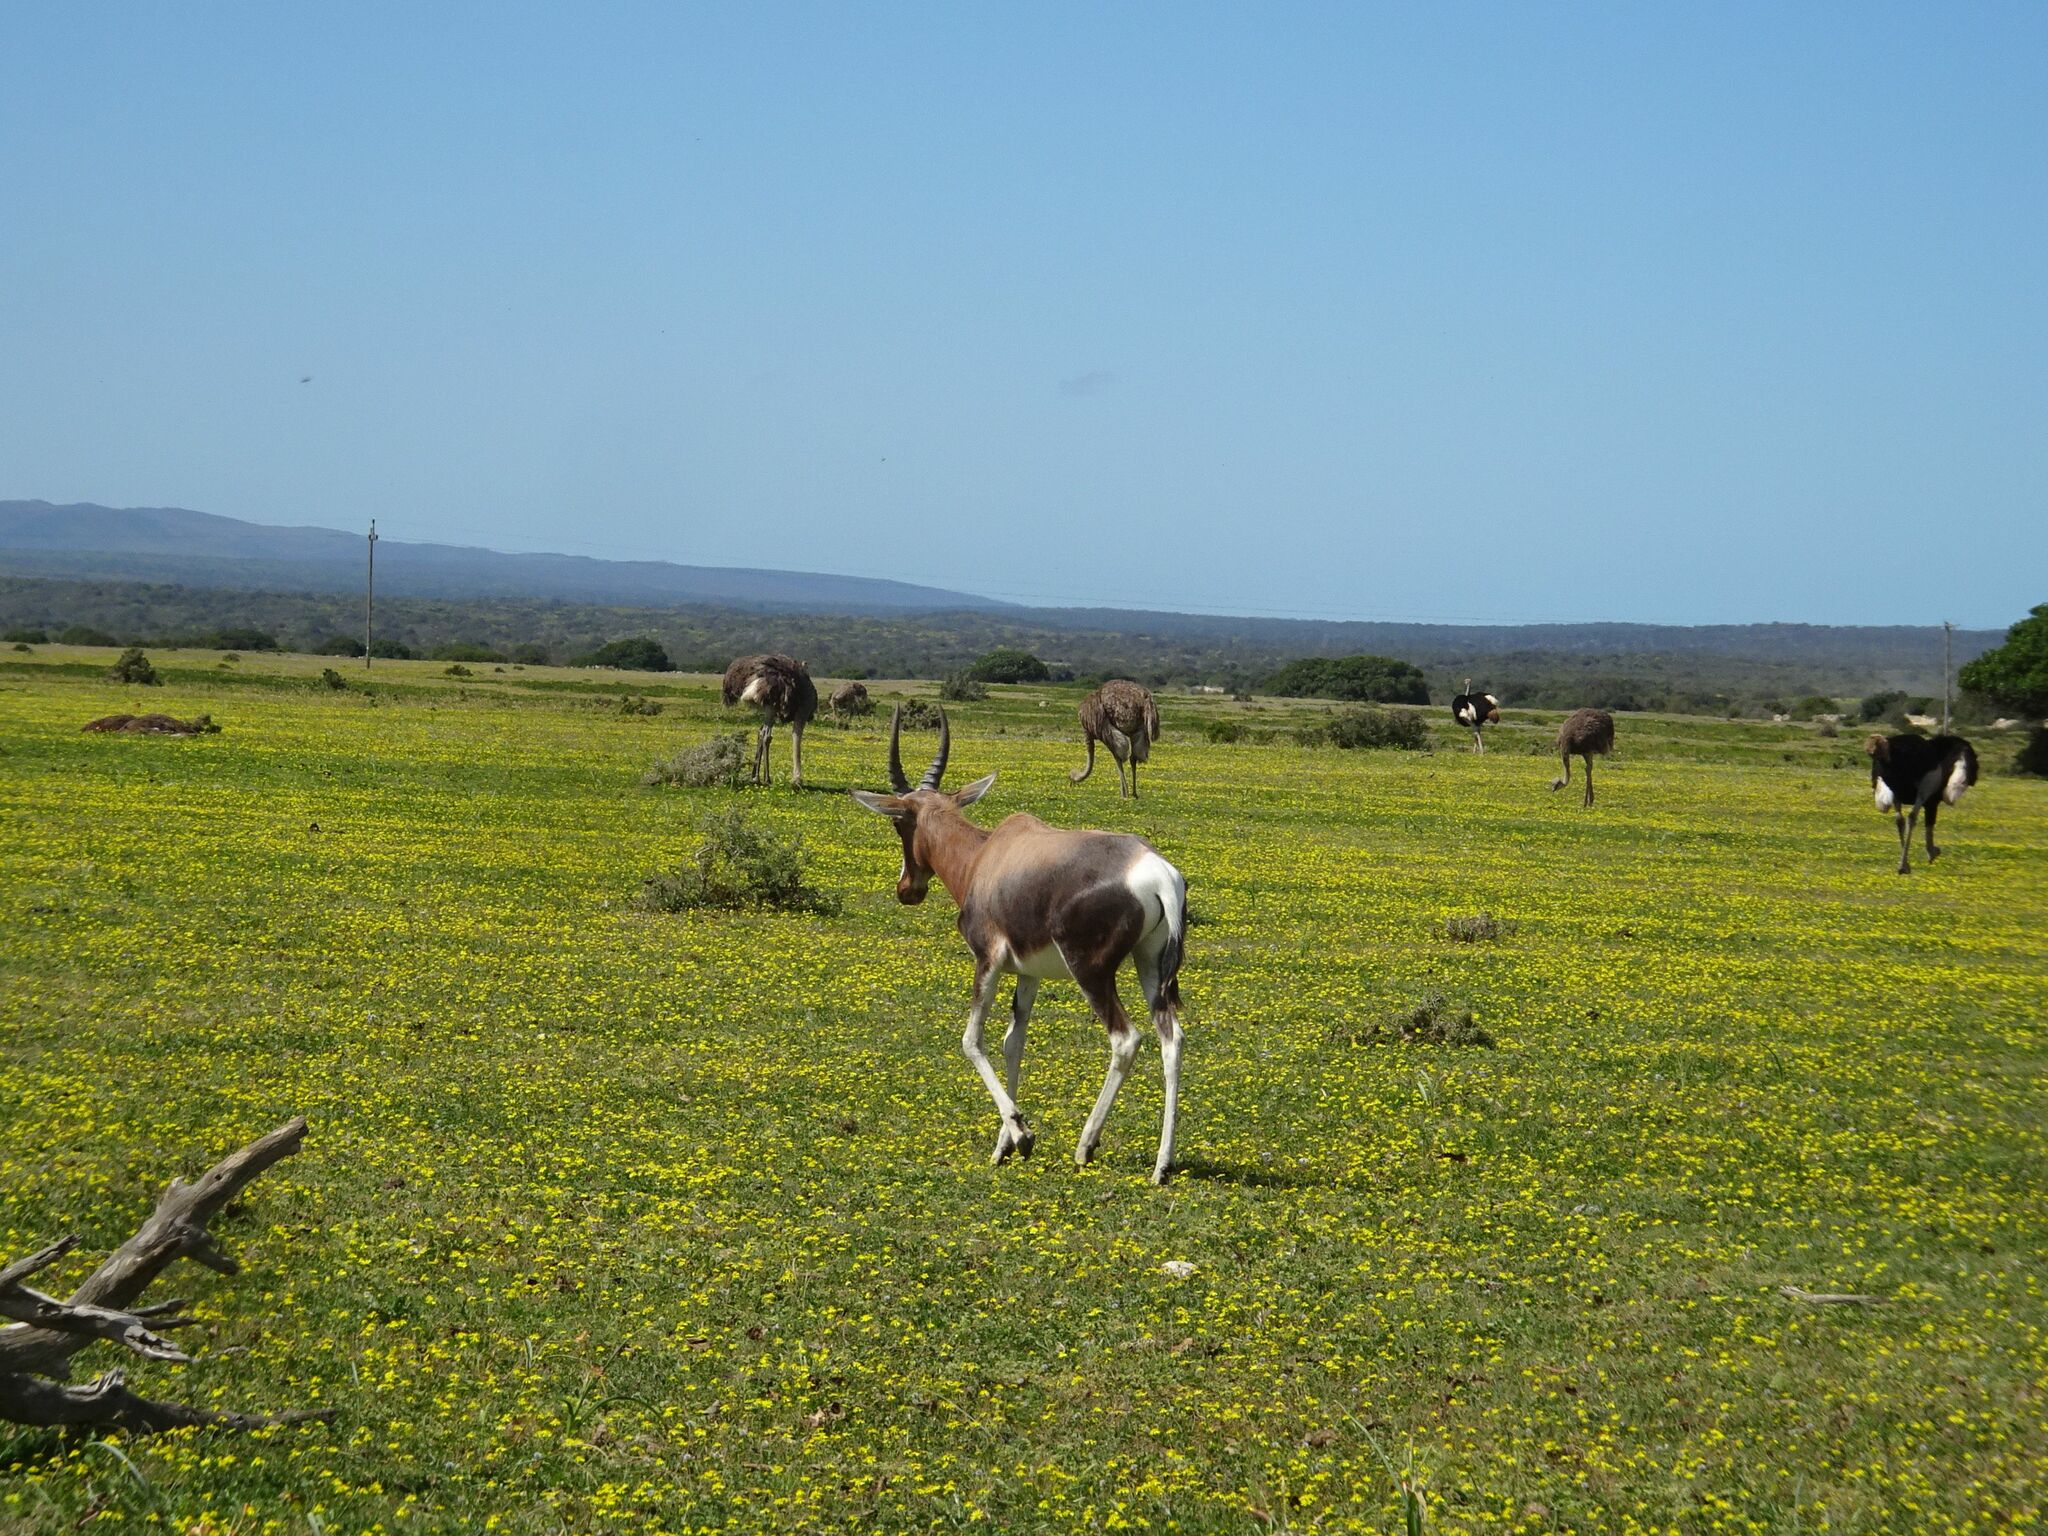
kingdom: Animalia
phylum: Chordata
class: Mammalia
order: Artiodactyla
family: Bovidae
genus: Damaliscus
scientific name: Damaliscus pygargus
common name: Bontebok
